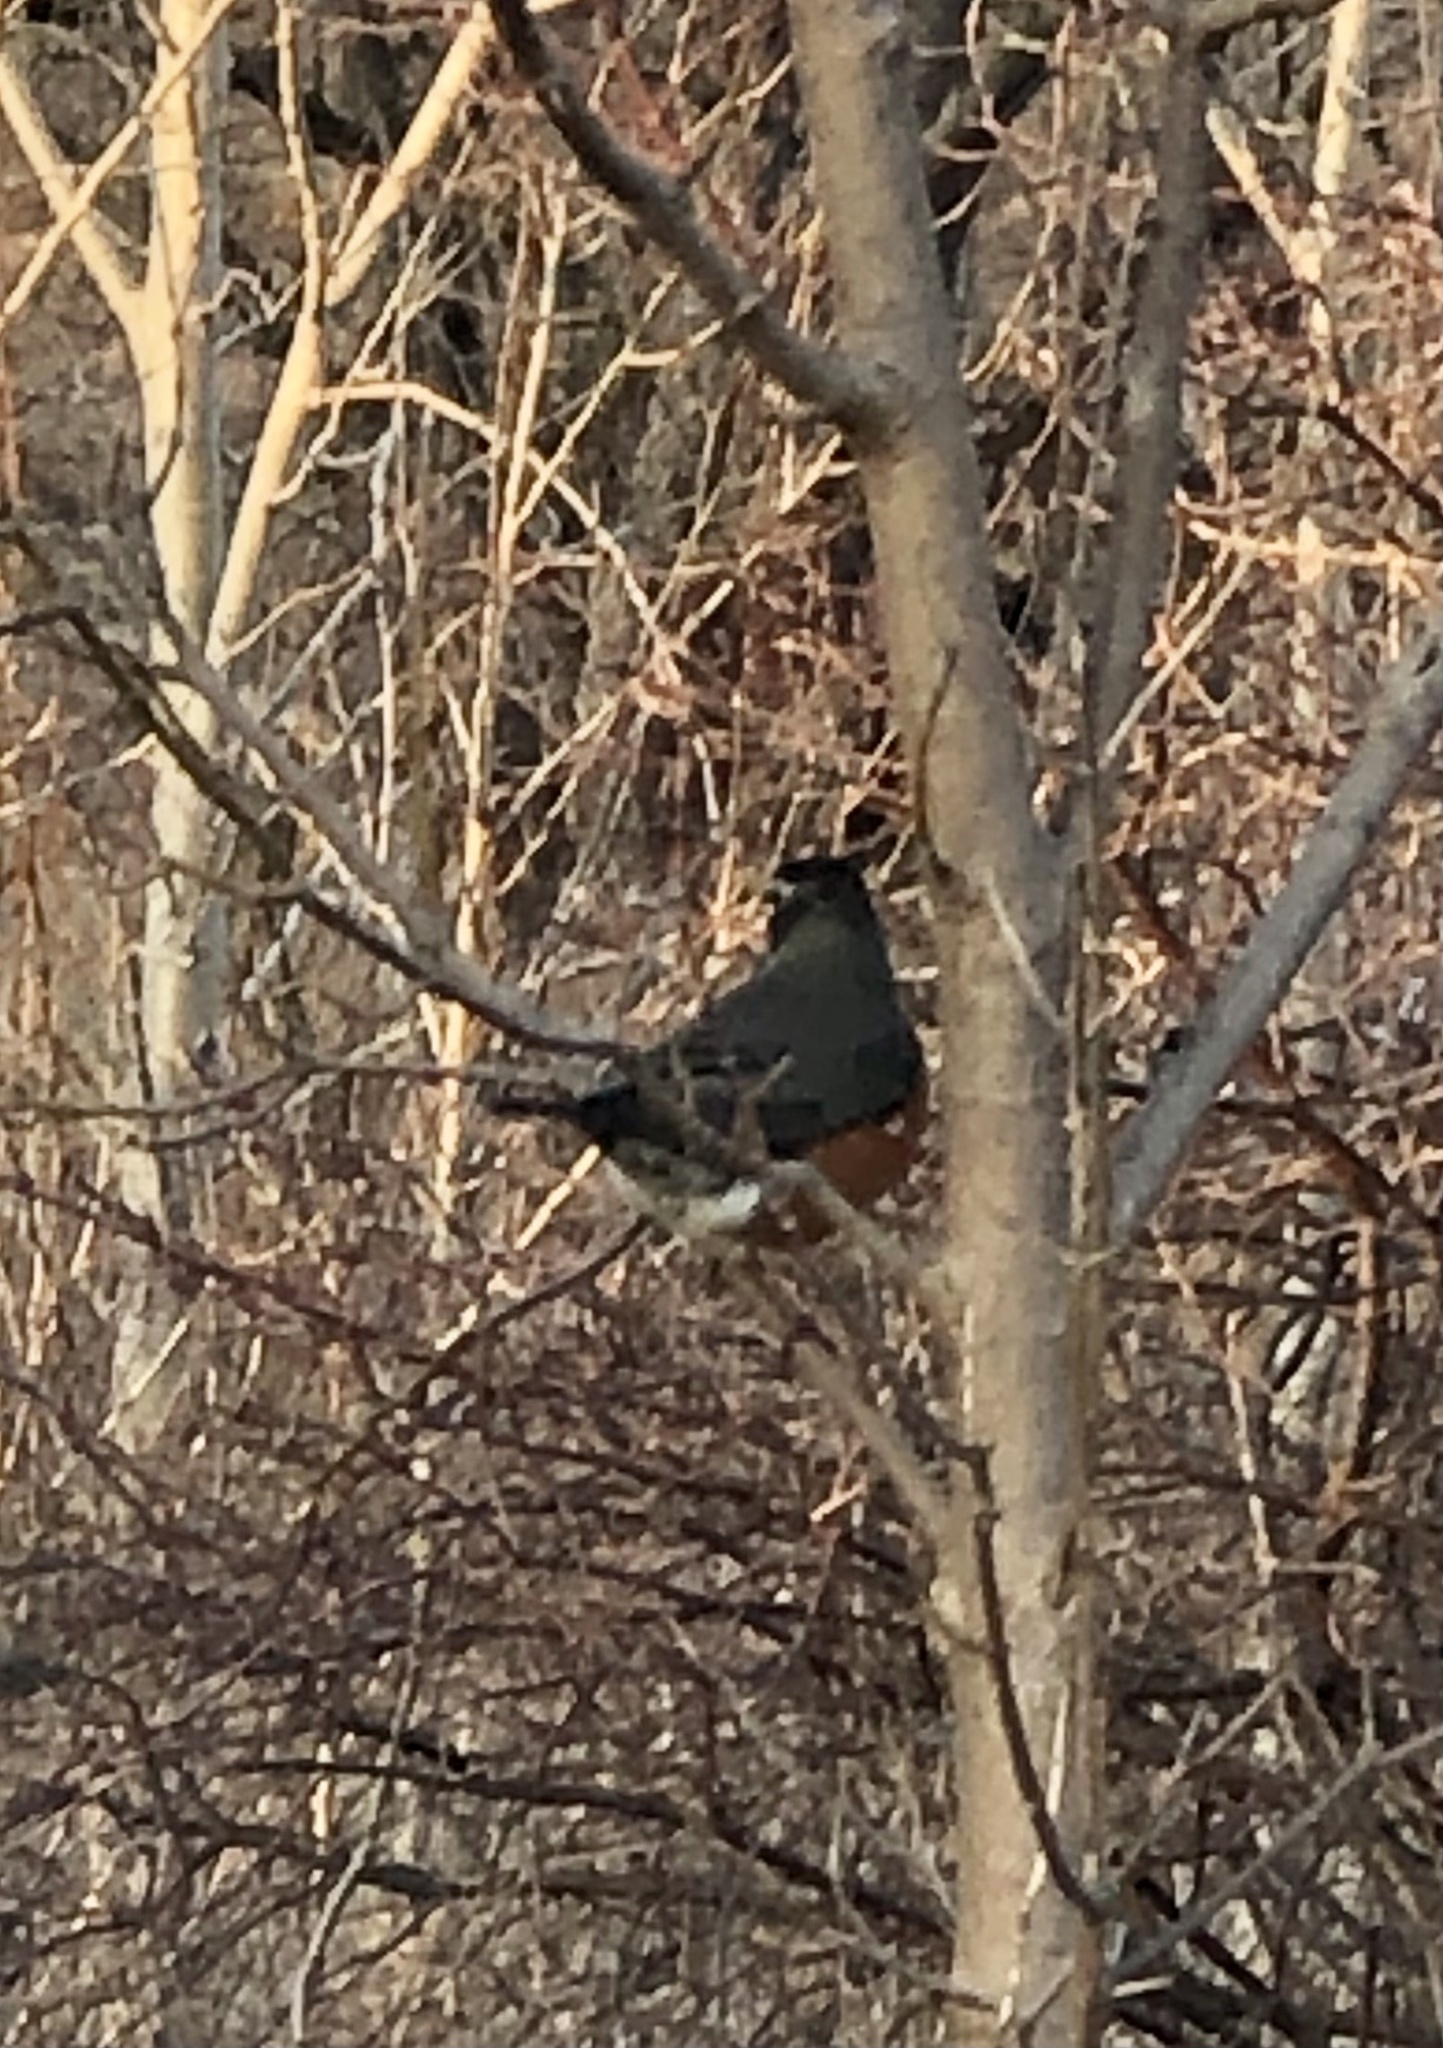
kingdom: Animalia
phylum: Chordata
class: Aves
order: Passeriformes
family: Turdidae
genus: Turdus
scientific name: Turdus migratorius
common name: American robin
